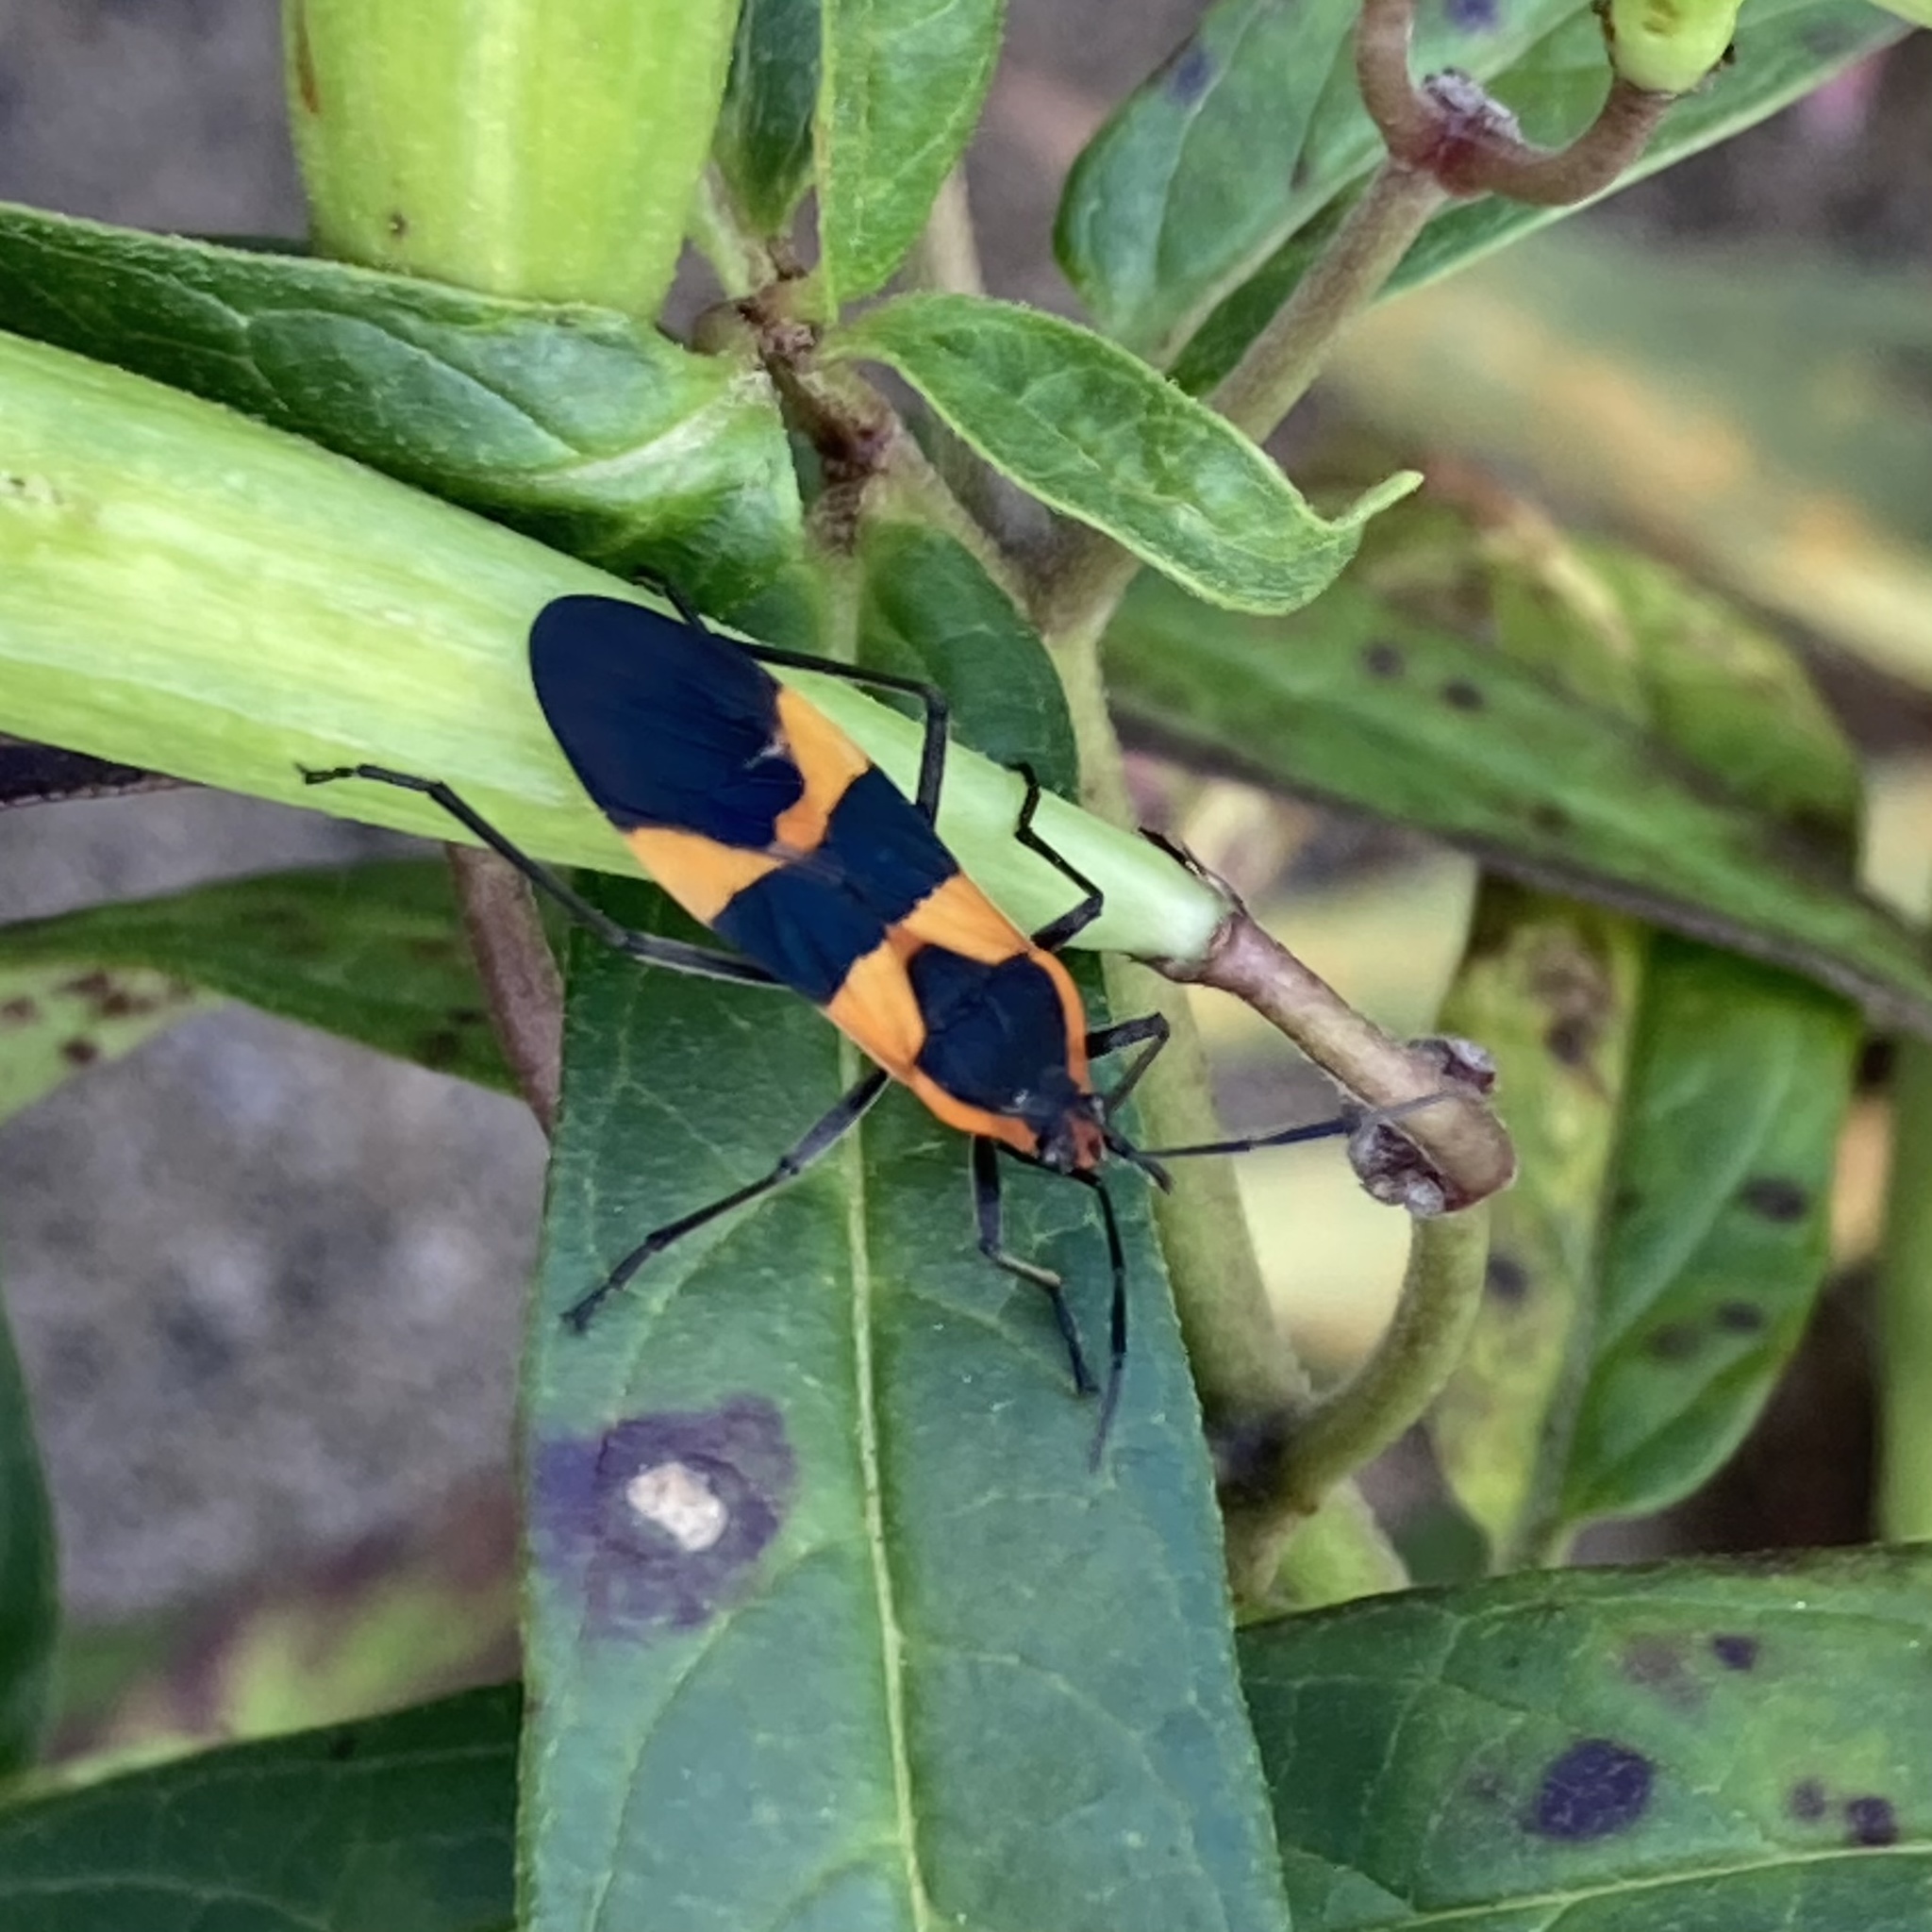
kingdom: Animalia
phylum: Arthropoda
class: Insecta
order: Hemiptera
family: Lygaeidae
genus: Oncopeltus
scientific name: Oncopeltus fasciatus
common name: Large milkweed bug
